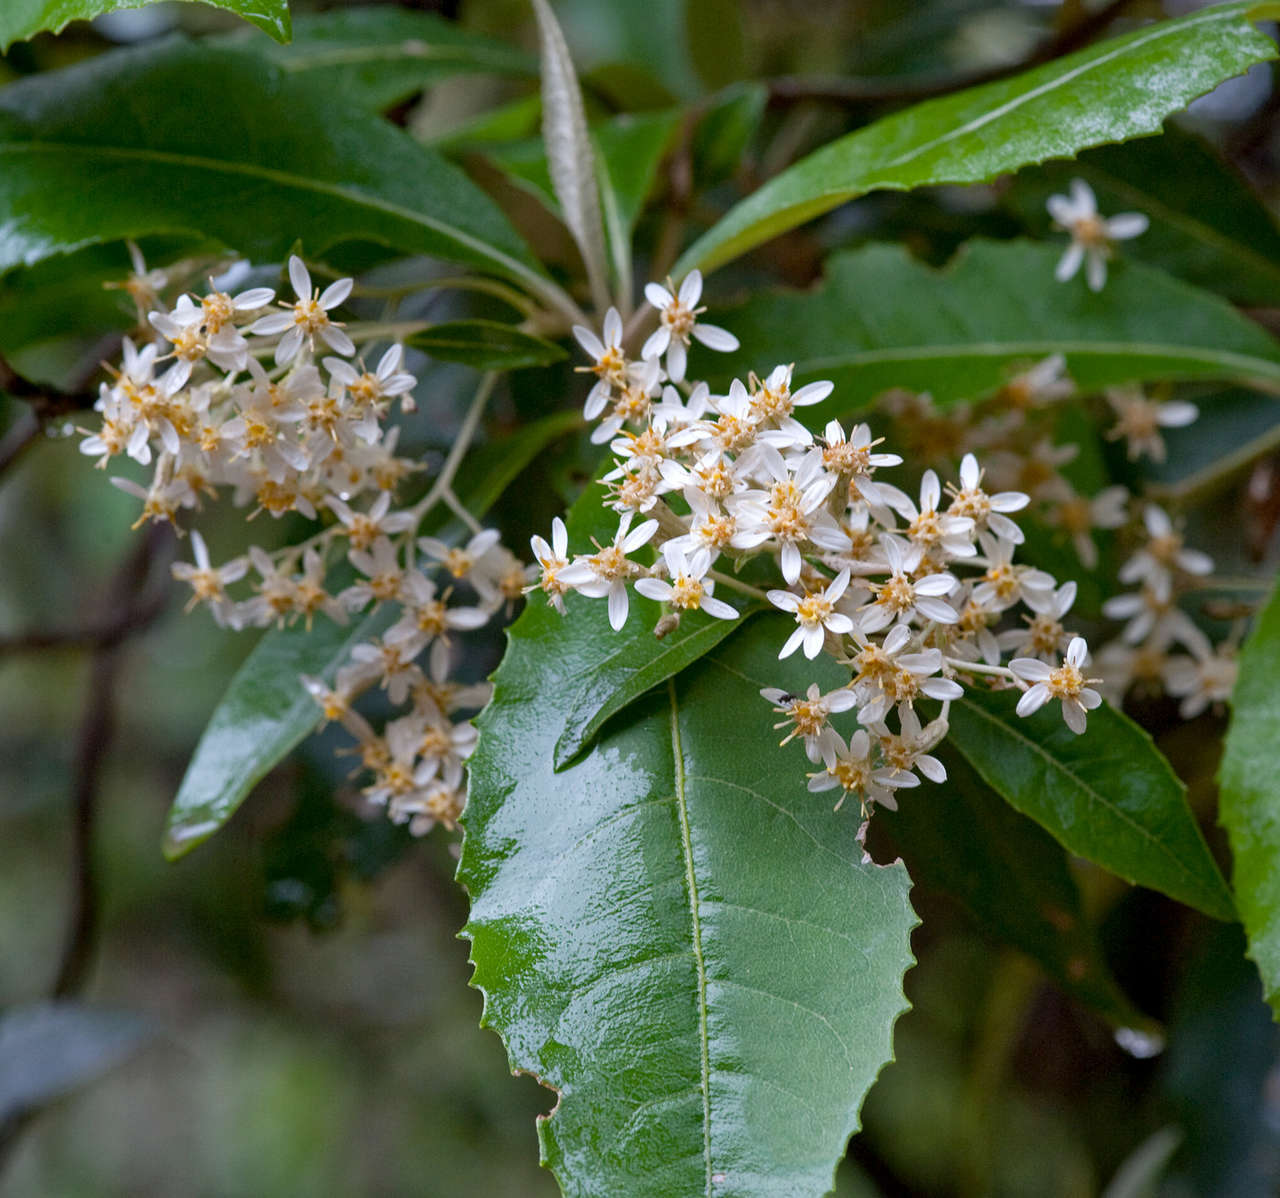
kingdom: Plantae
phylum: Tracheophyta
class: Magnoliopsida
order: Asterales
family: Asteraceae
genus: Olearia
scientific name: Olearia argophylla
